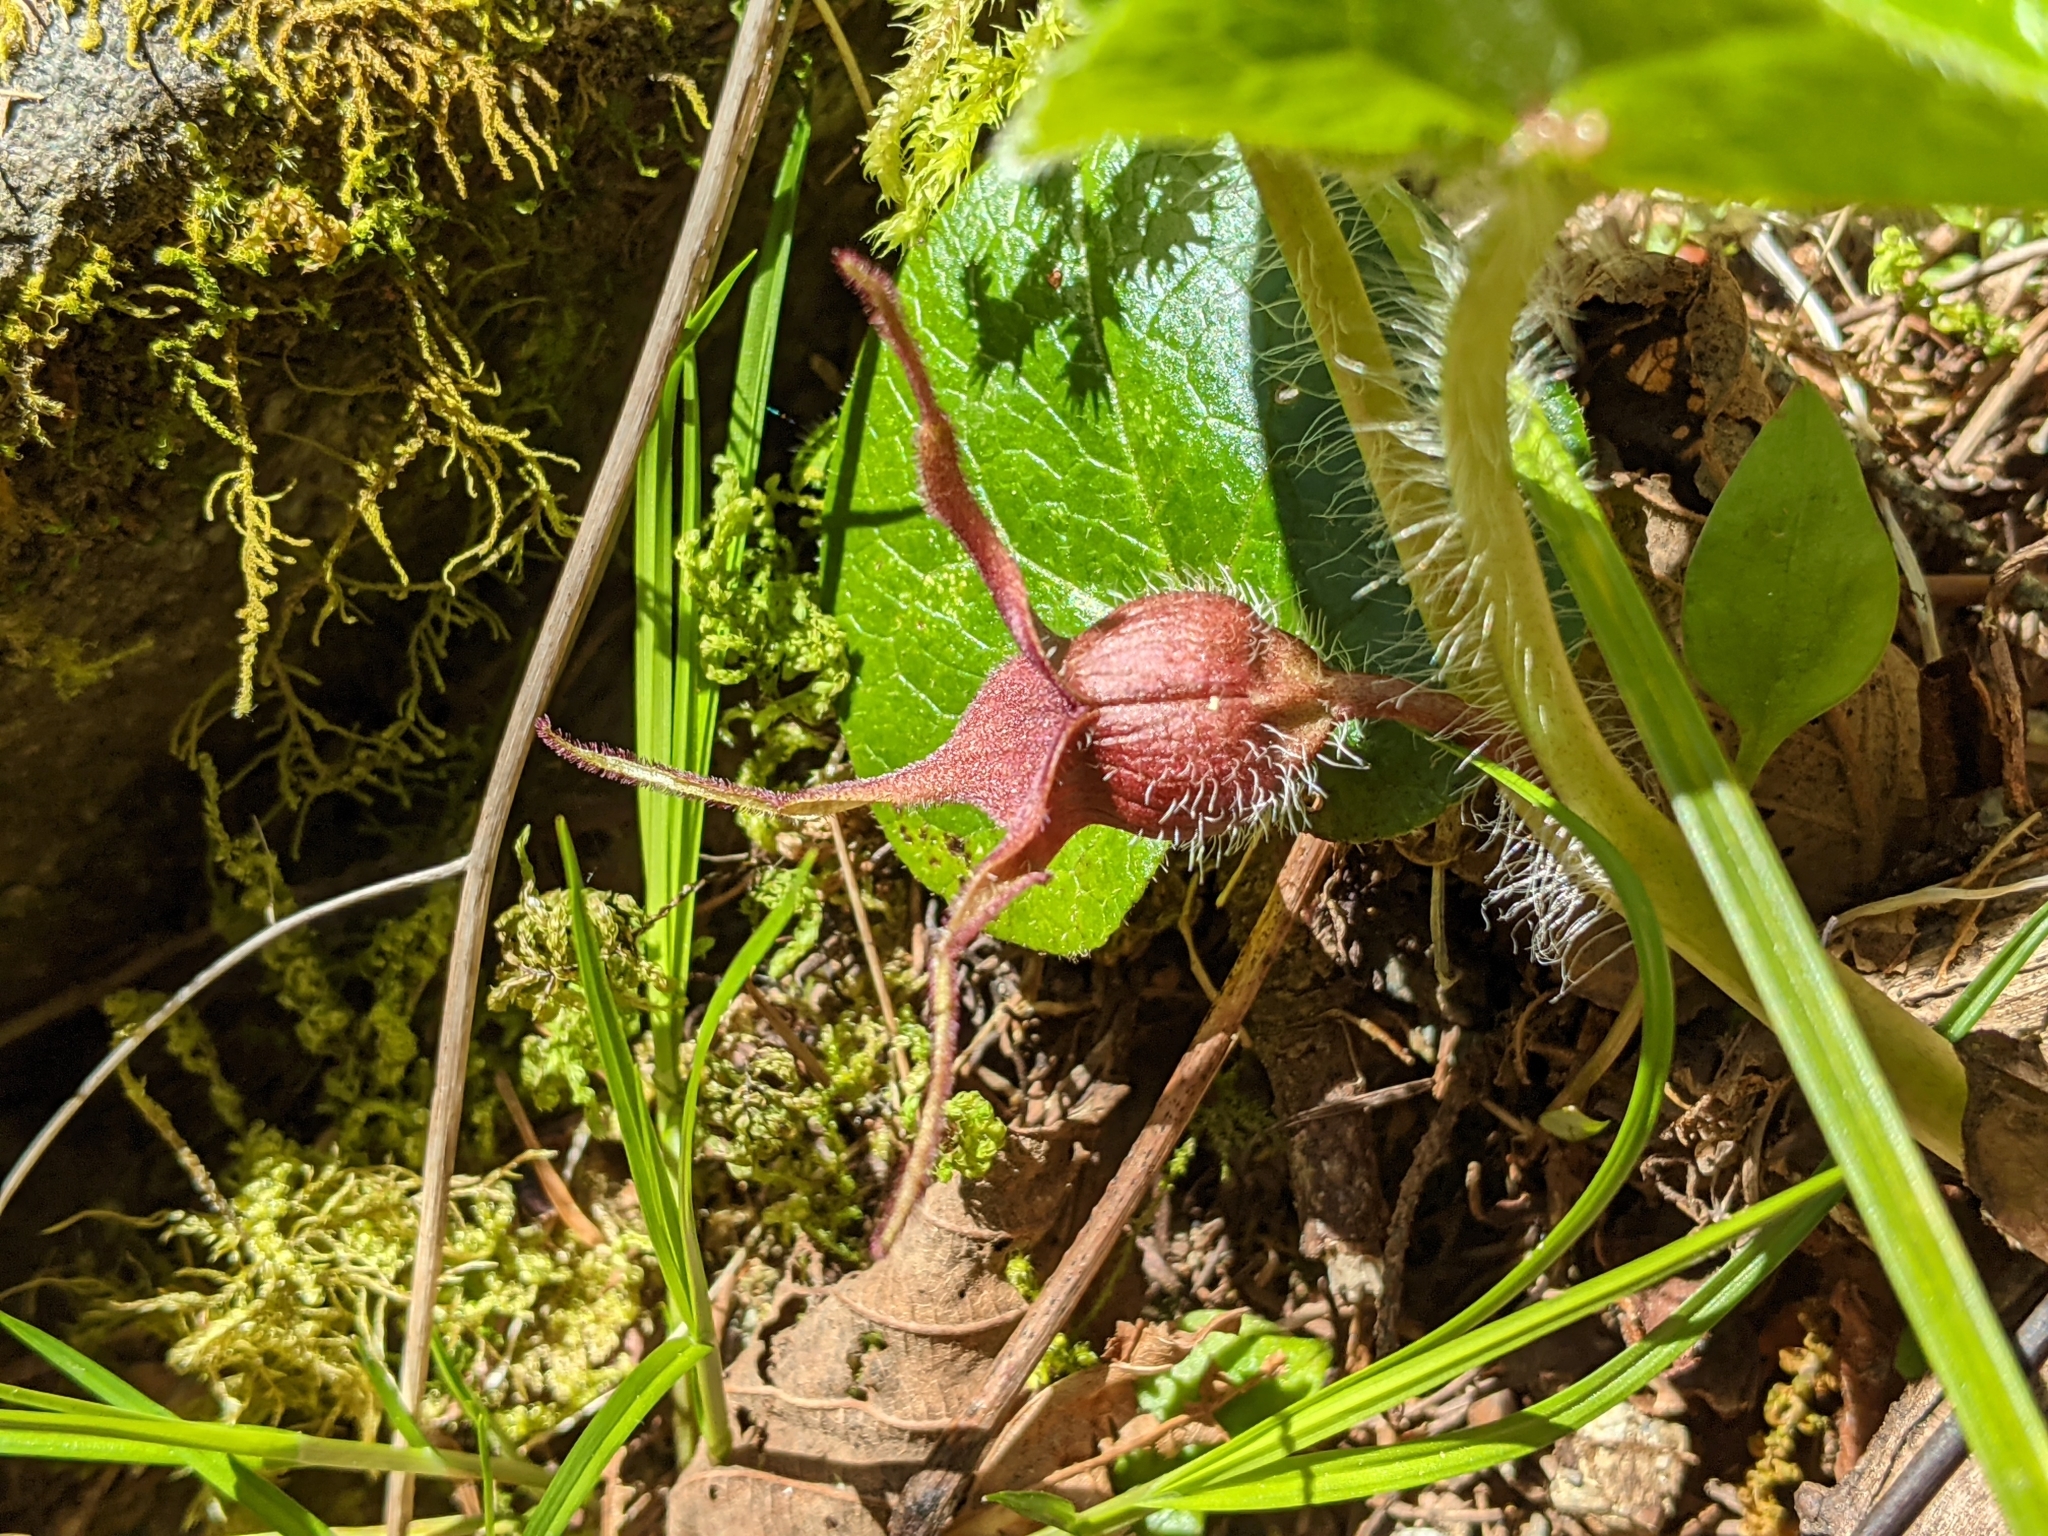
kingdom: Plantae
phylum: Tracheophyta
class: Magnoliopsida
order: Piperales
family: Aristolochiaceae
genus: Asarum
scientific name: Asarum caudatum
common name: Wild ginger
